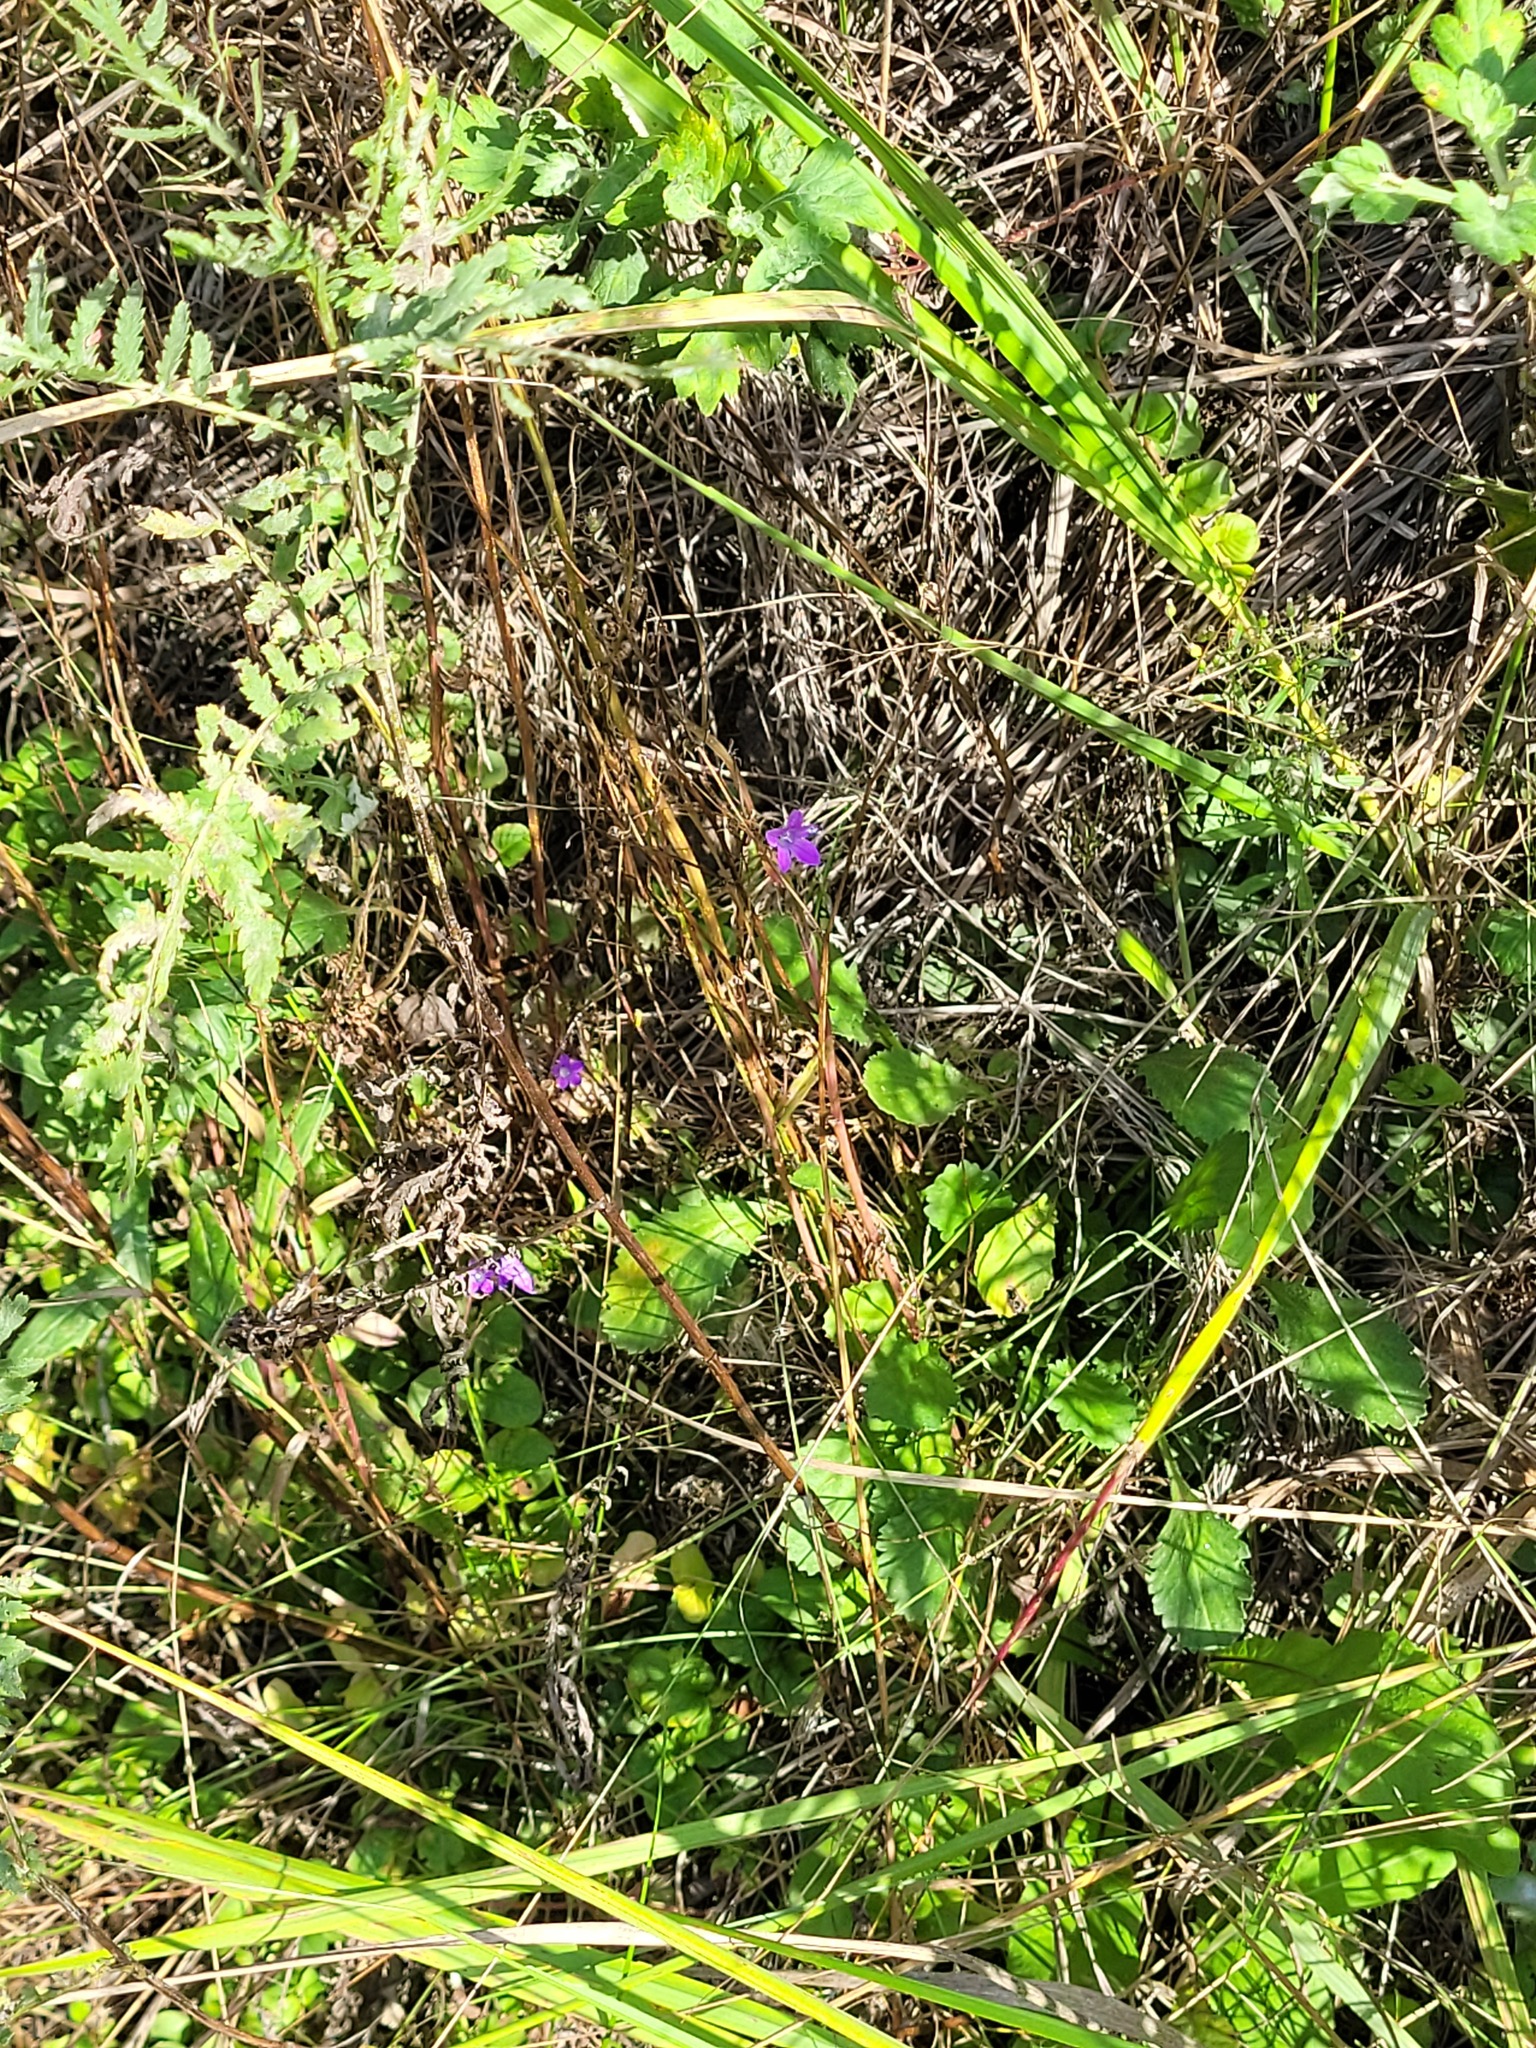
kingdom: Plantae
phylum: Tracheophyta
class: Magnoliopsida
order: Asterales
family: Campanulaceae
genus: Campanula
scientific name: Campanula patula
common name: Spreading bellflower
